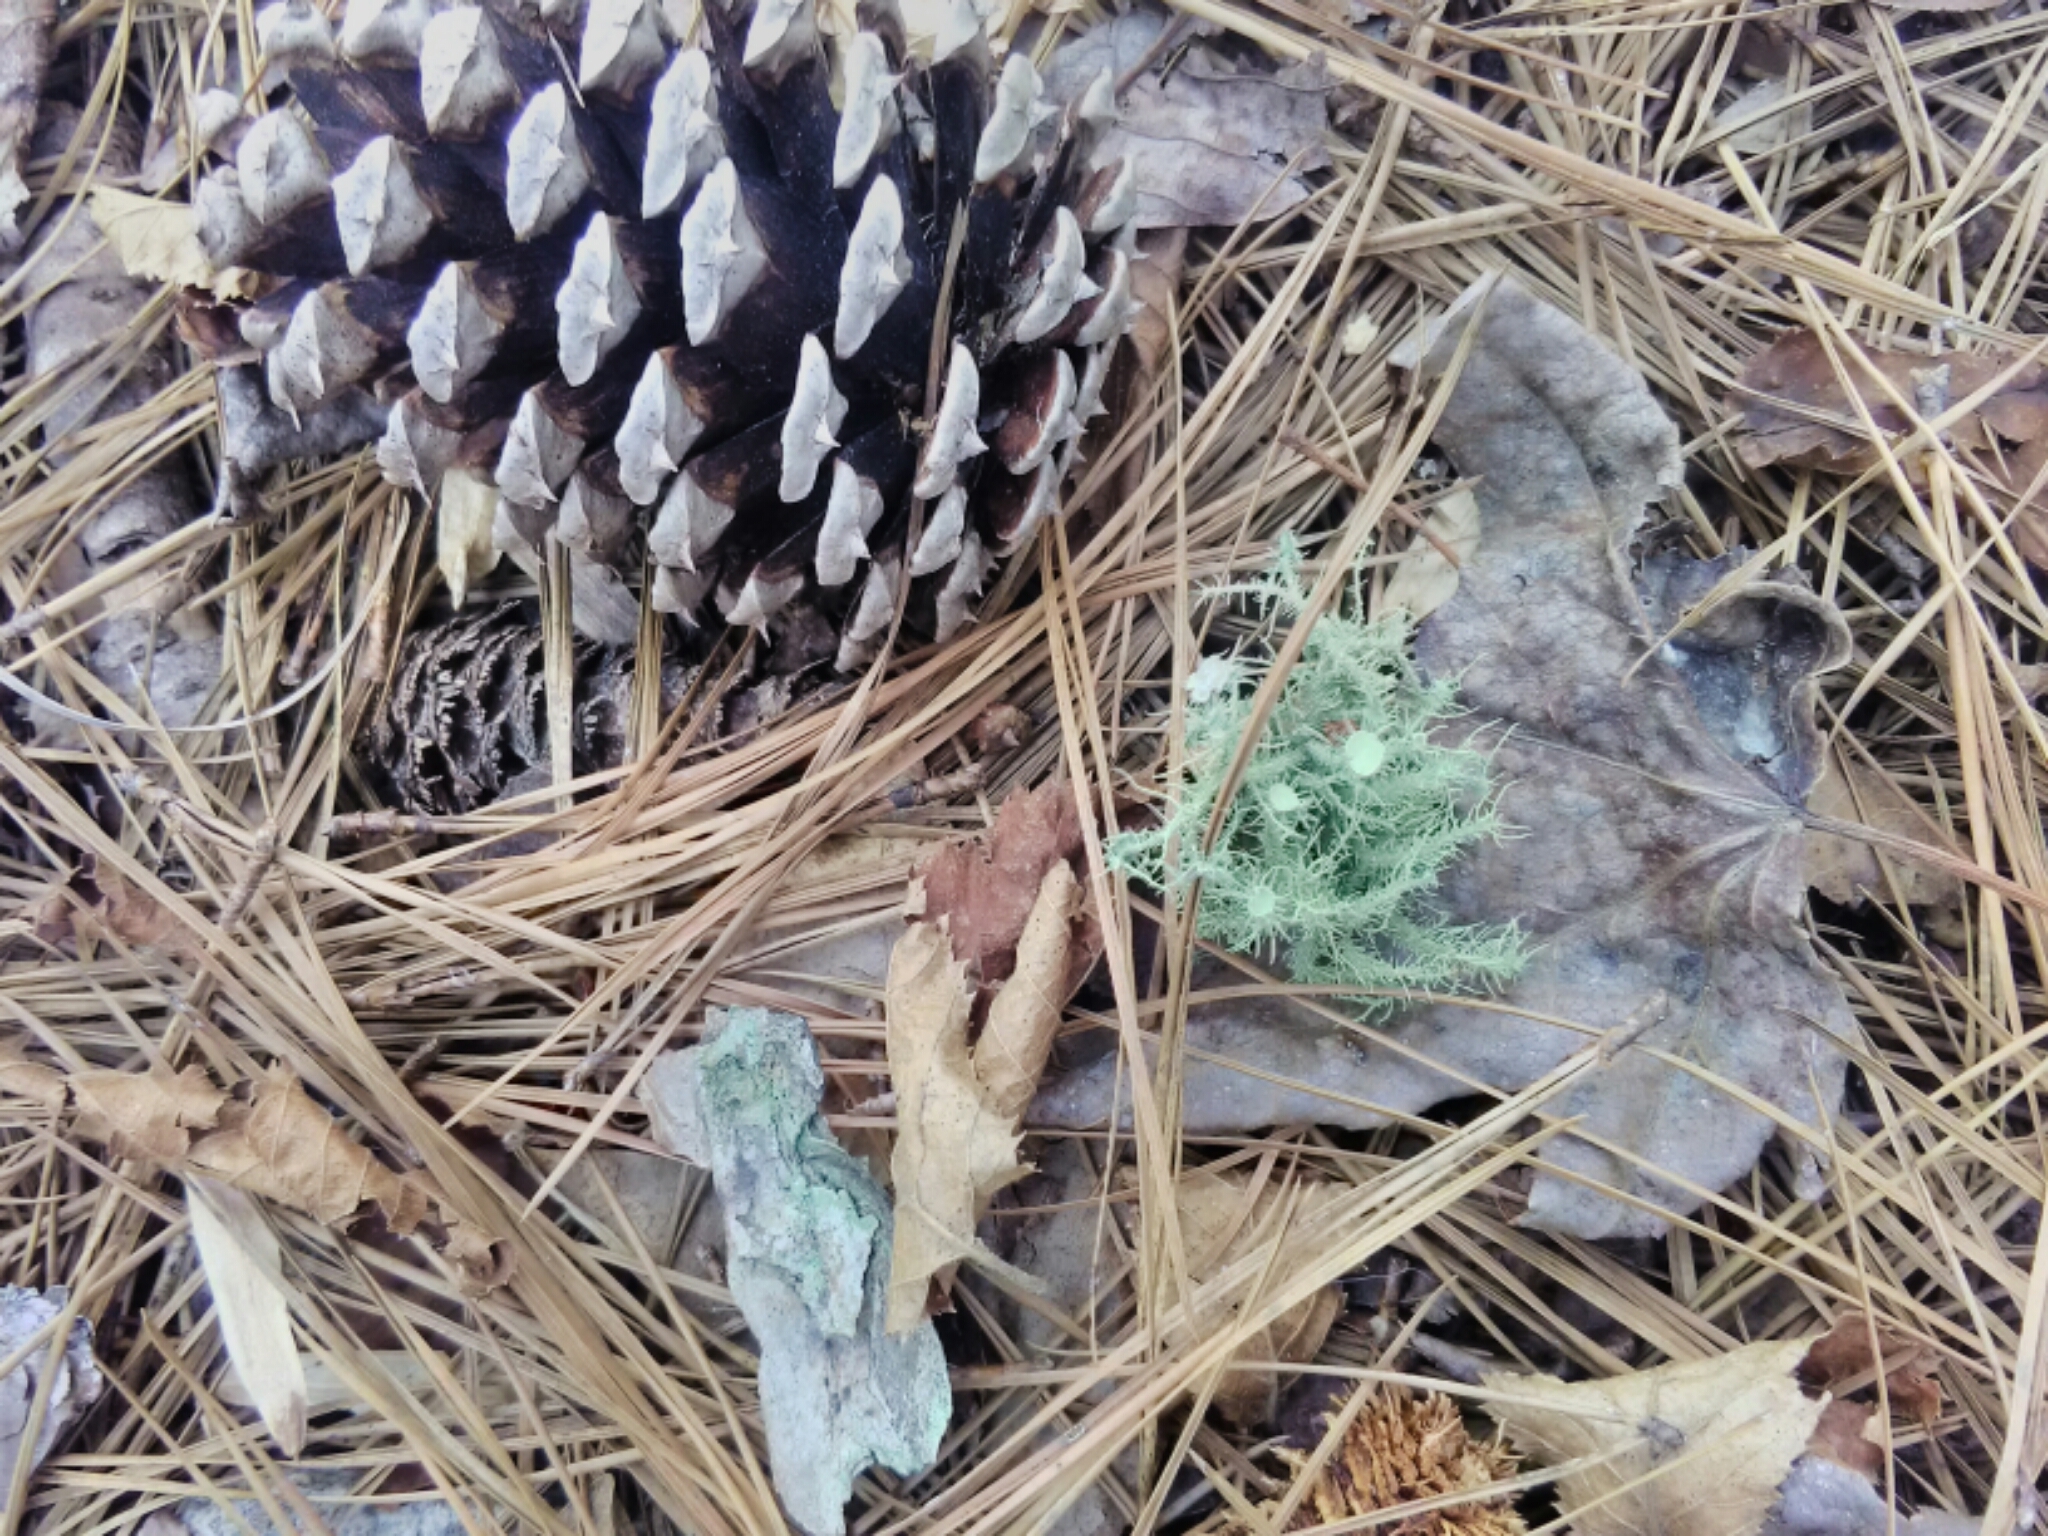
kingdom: Fungi
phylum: Ascomycota
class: Lecanoromycetes
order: Lecanorales
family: Parmeliaceae
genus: Usnea
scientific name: Usnea strigosa
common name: Bushy beard lichen
